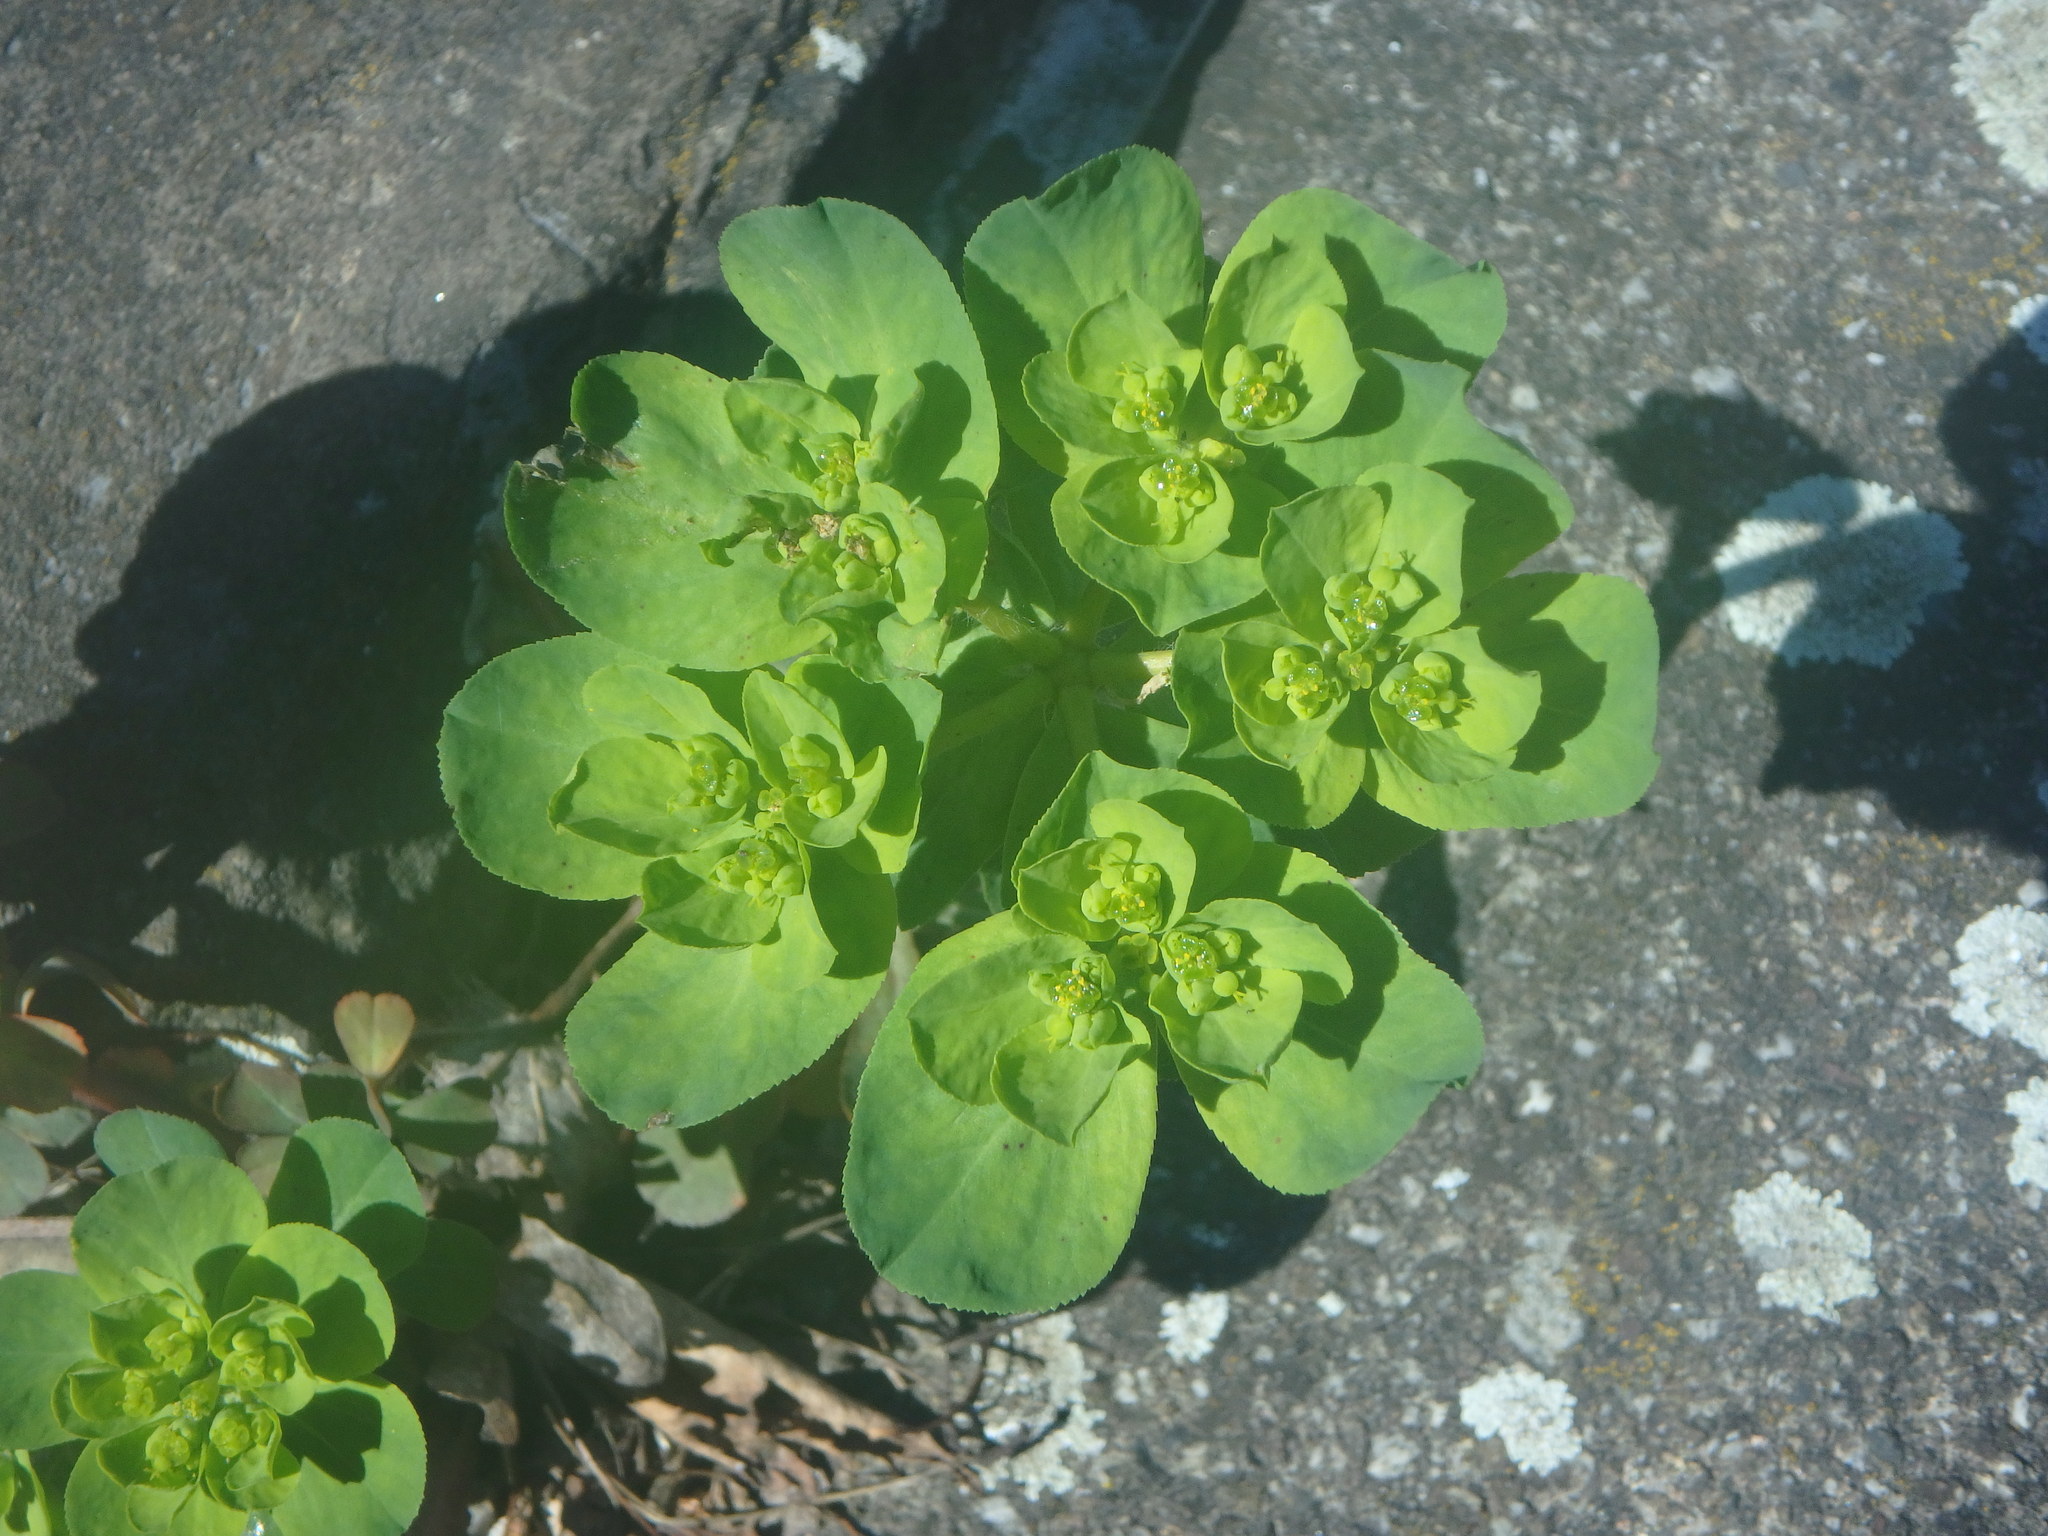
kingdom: Plantae
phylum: Tracheophyta
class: Magnoliopsida
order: Malpighiales
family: Euphorbiaceae
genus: Euphorbia
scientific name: Euphorbia helioscopia
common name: Sun spurge
